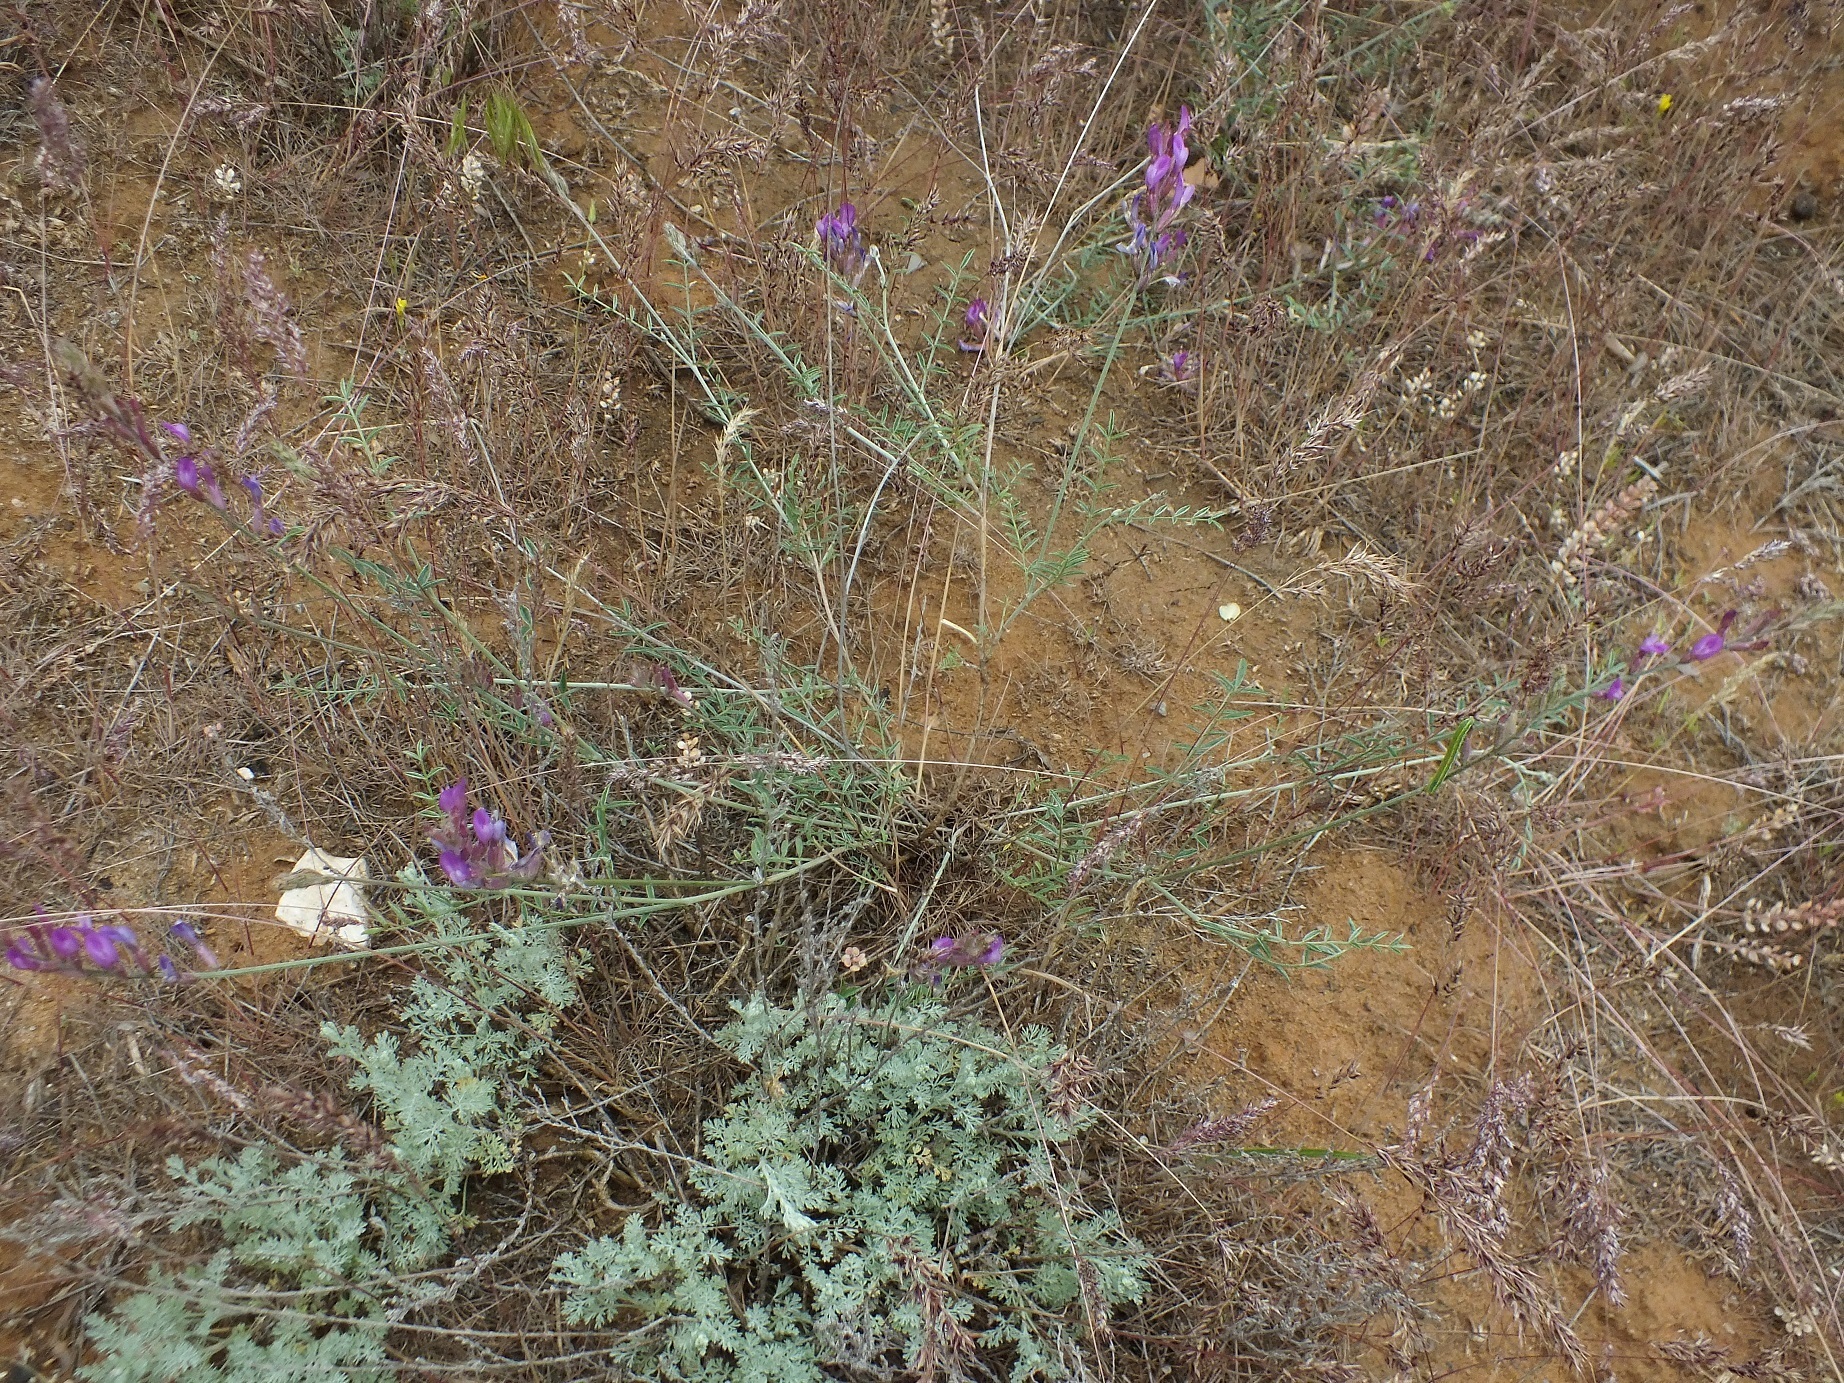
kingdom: Plantae
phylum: Tracheophyta
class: Magnoliopsida
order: Fabales
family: Fabaceae
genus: Astragalus
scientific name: Astragalus varius
